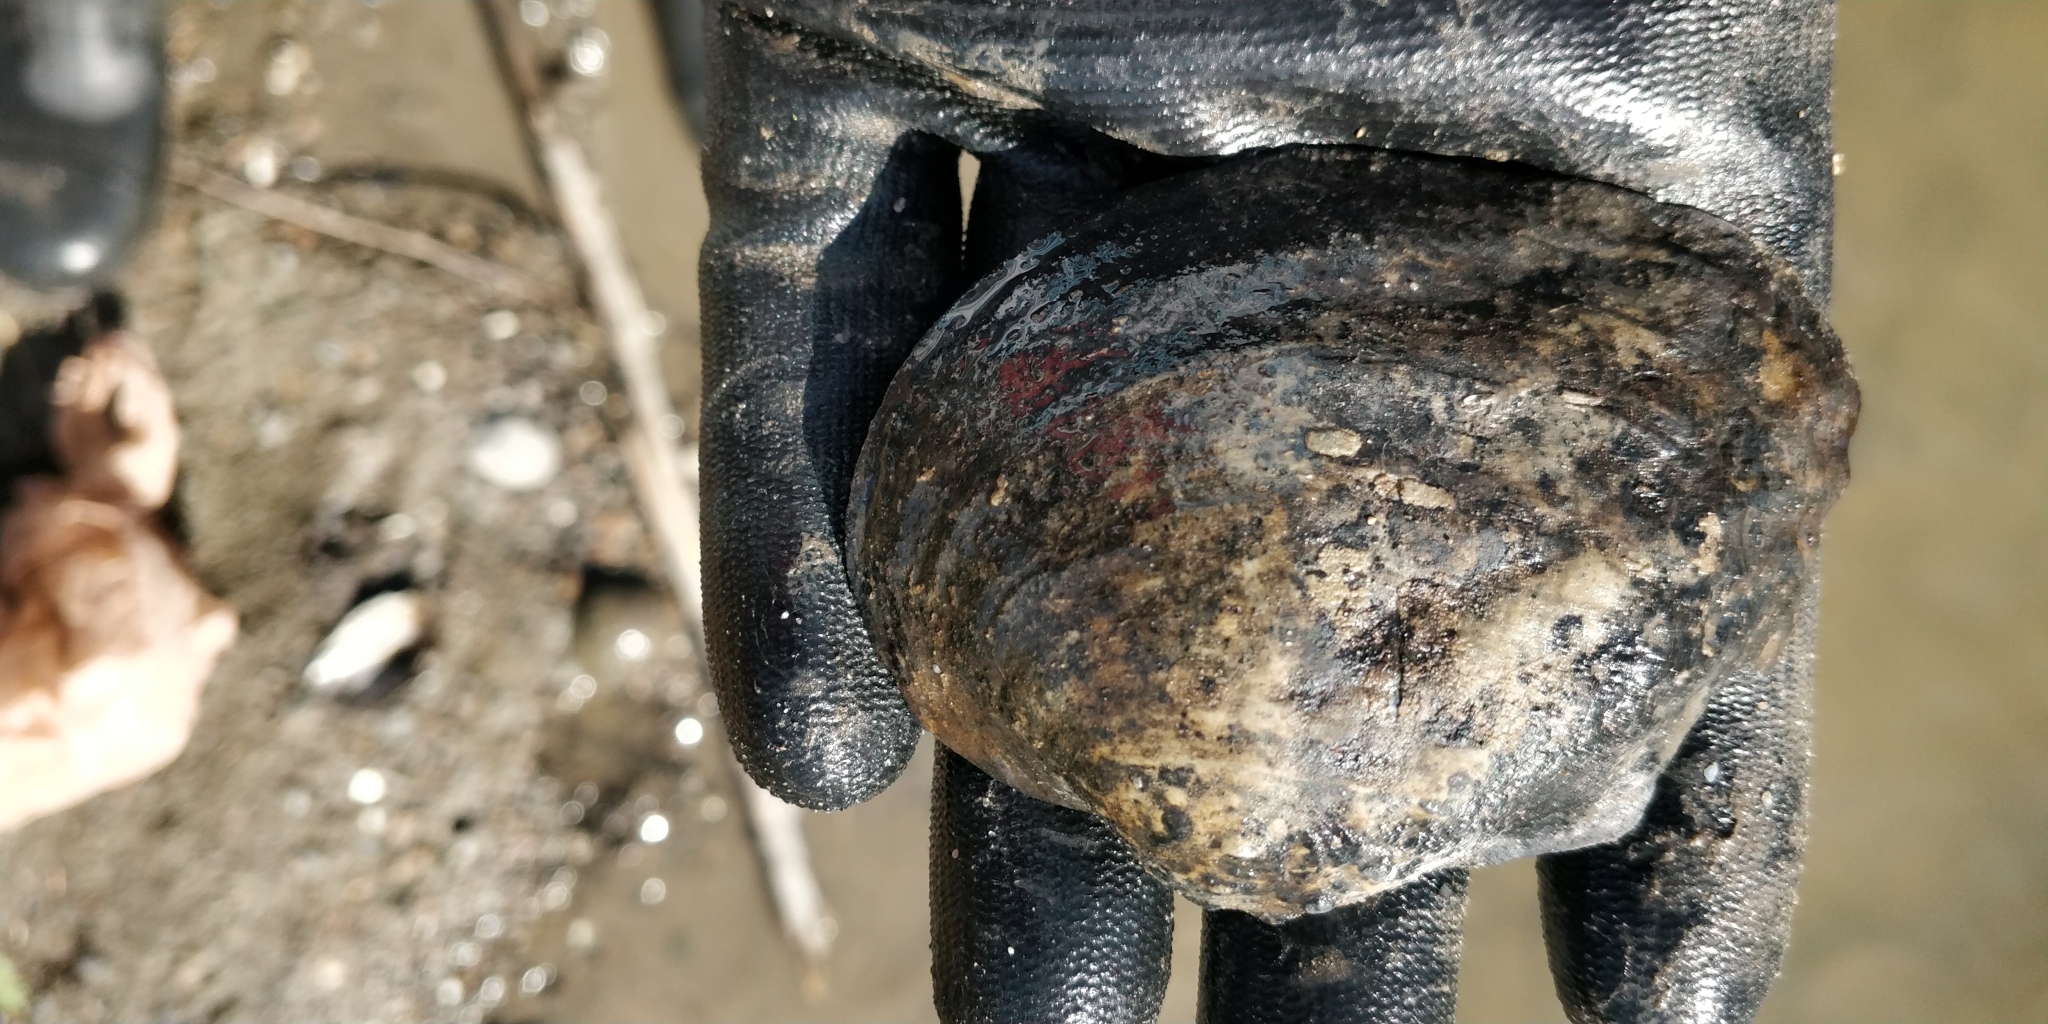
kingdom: Animalia
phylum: Mollusca
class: Bivalvia
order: Unionida
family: Unionidae
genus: Arcidens
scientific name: Arcidens confragosus
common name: Rock pocketbook
